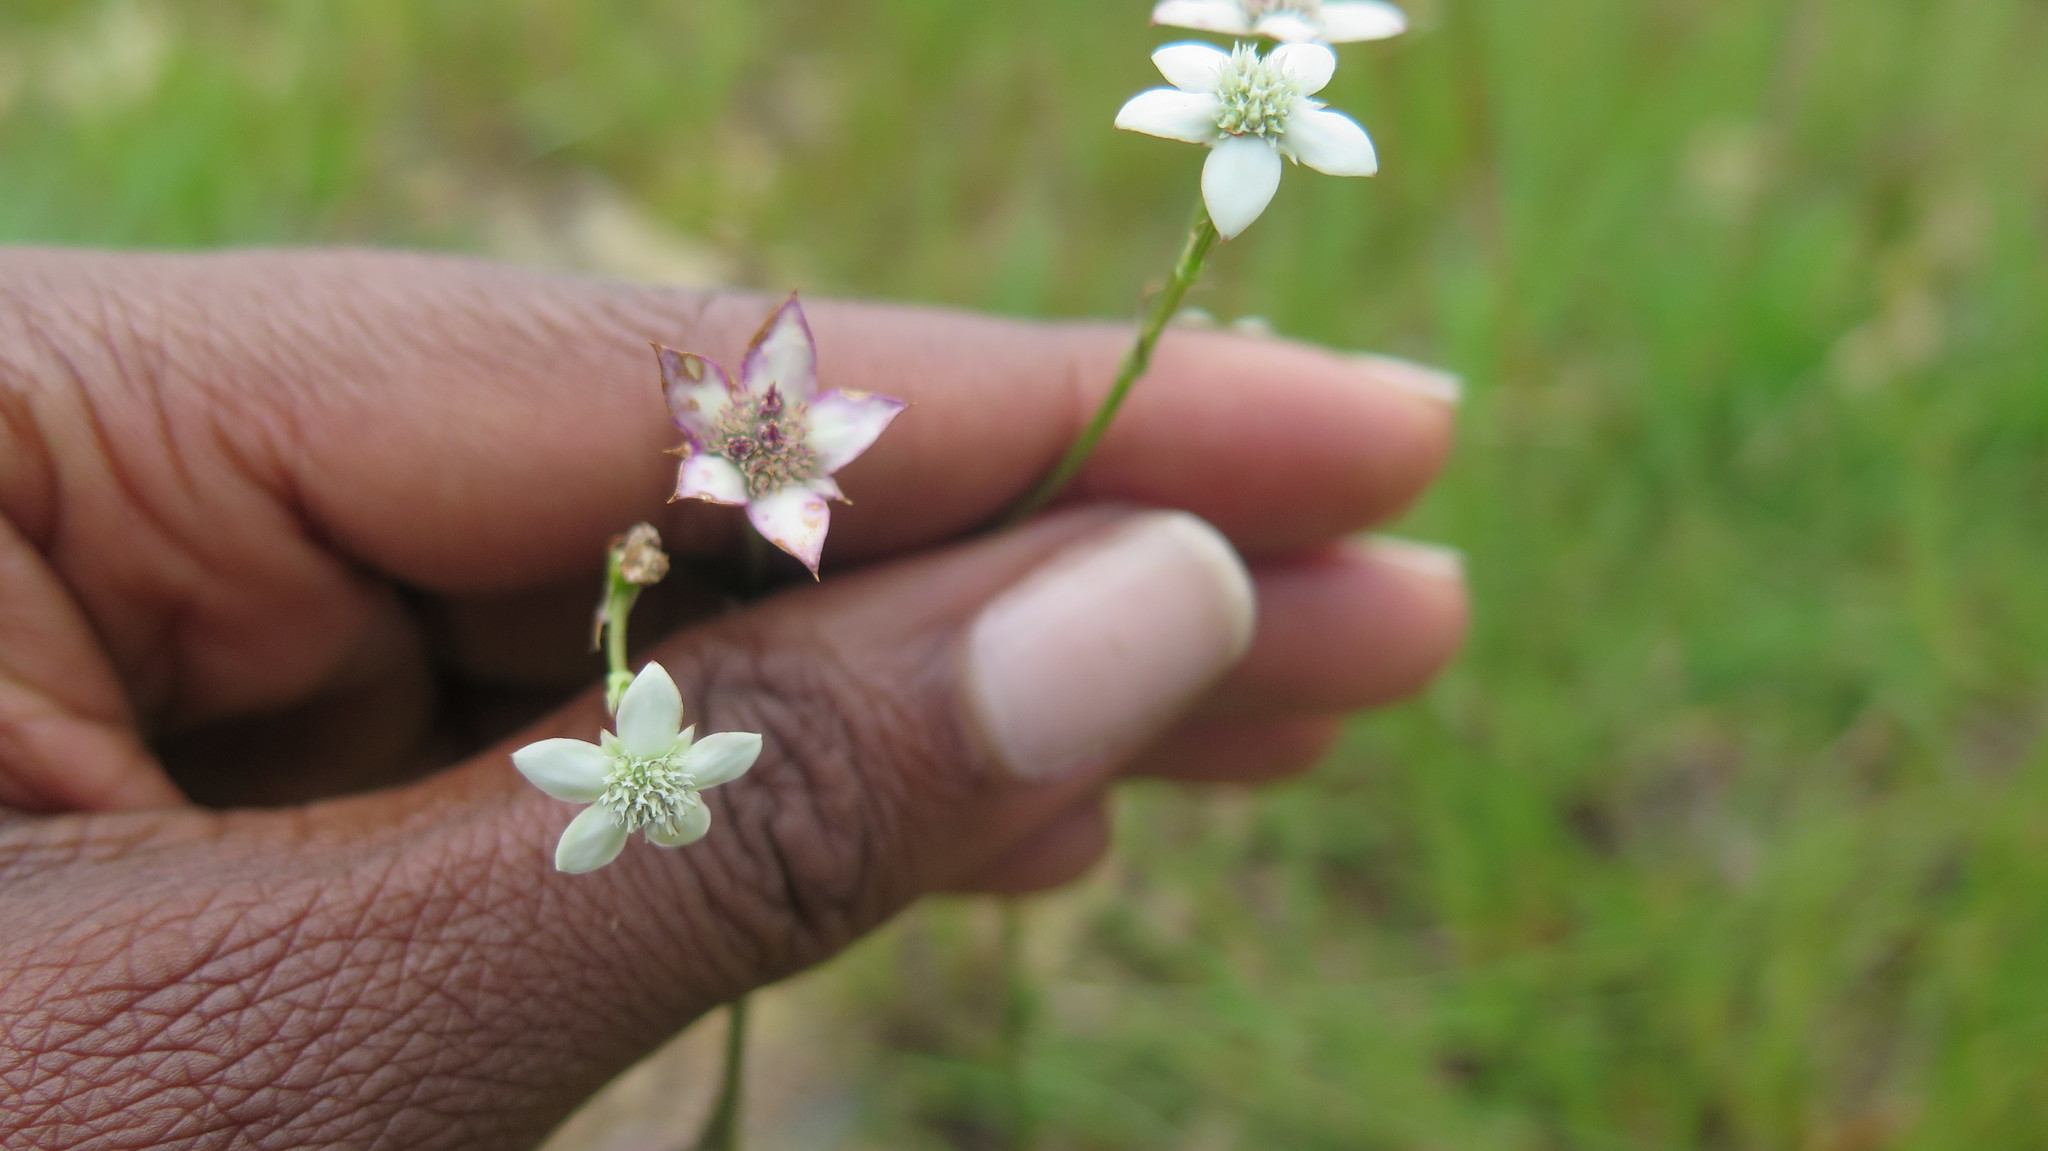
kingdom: Plantae
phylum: Tracheophyta
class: Magnoliopsida
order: Apiales
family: Apiaceae
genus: Alepidea
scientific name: Alepidea natalensis
